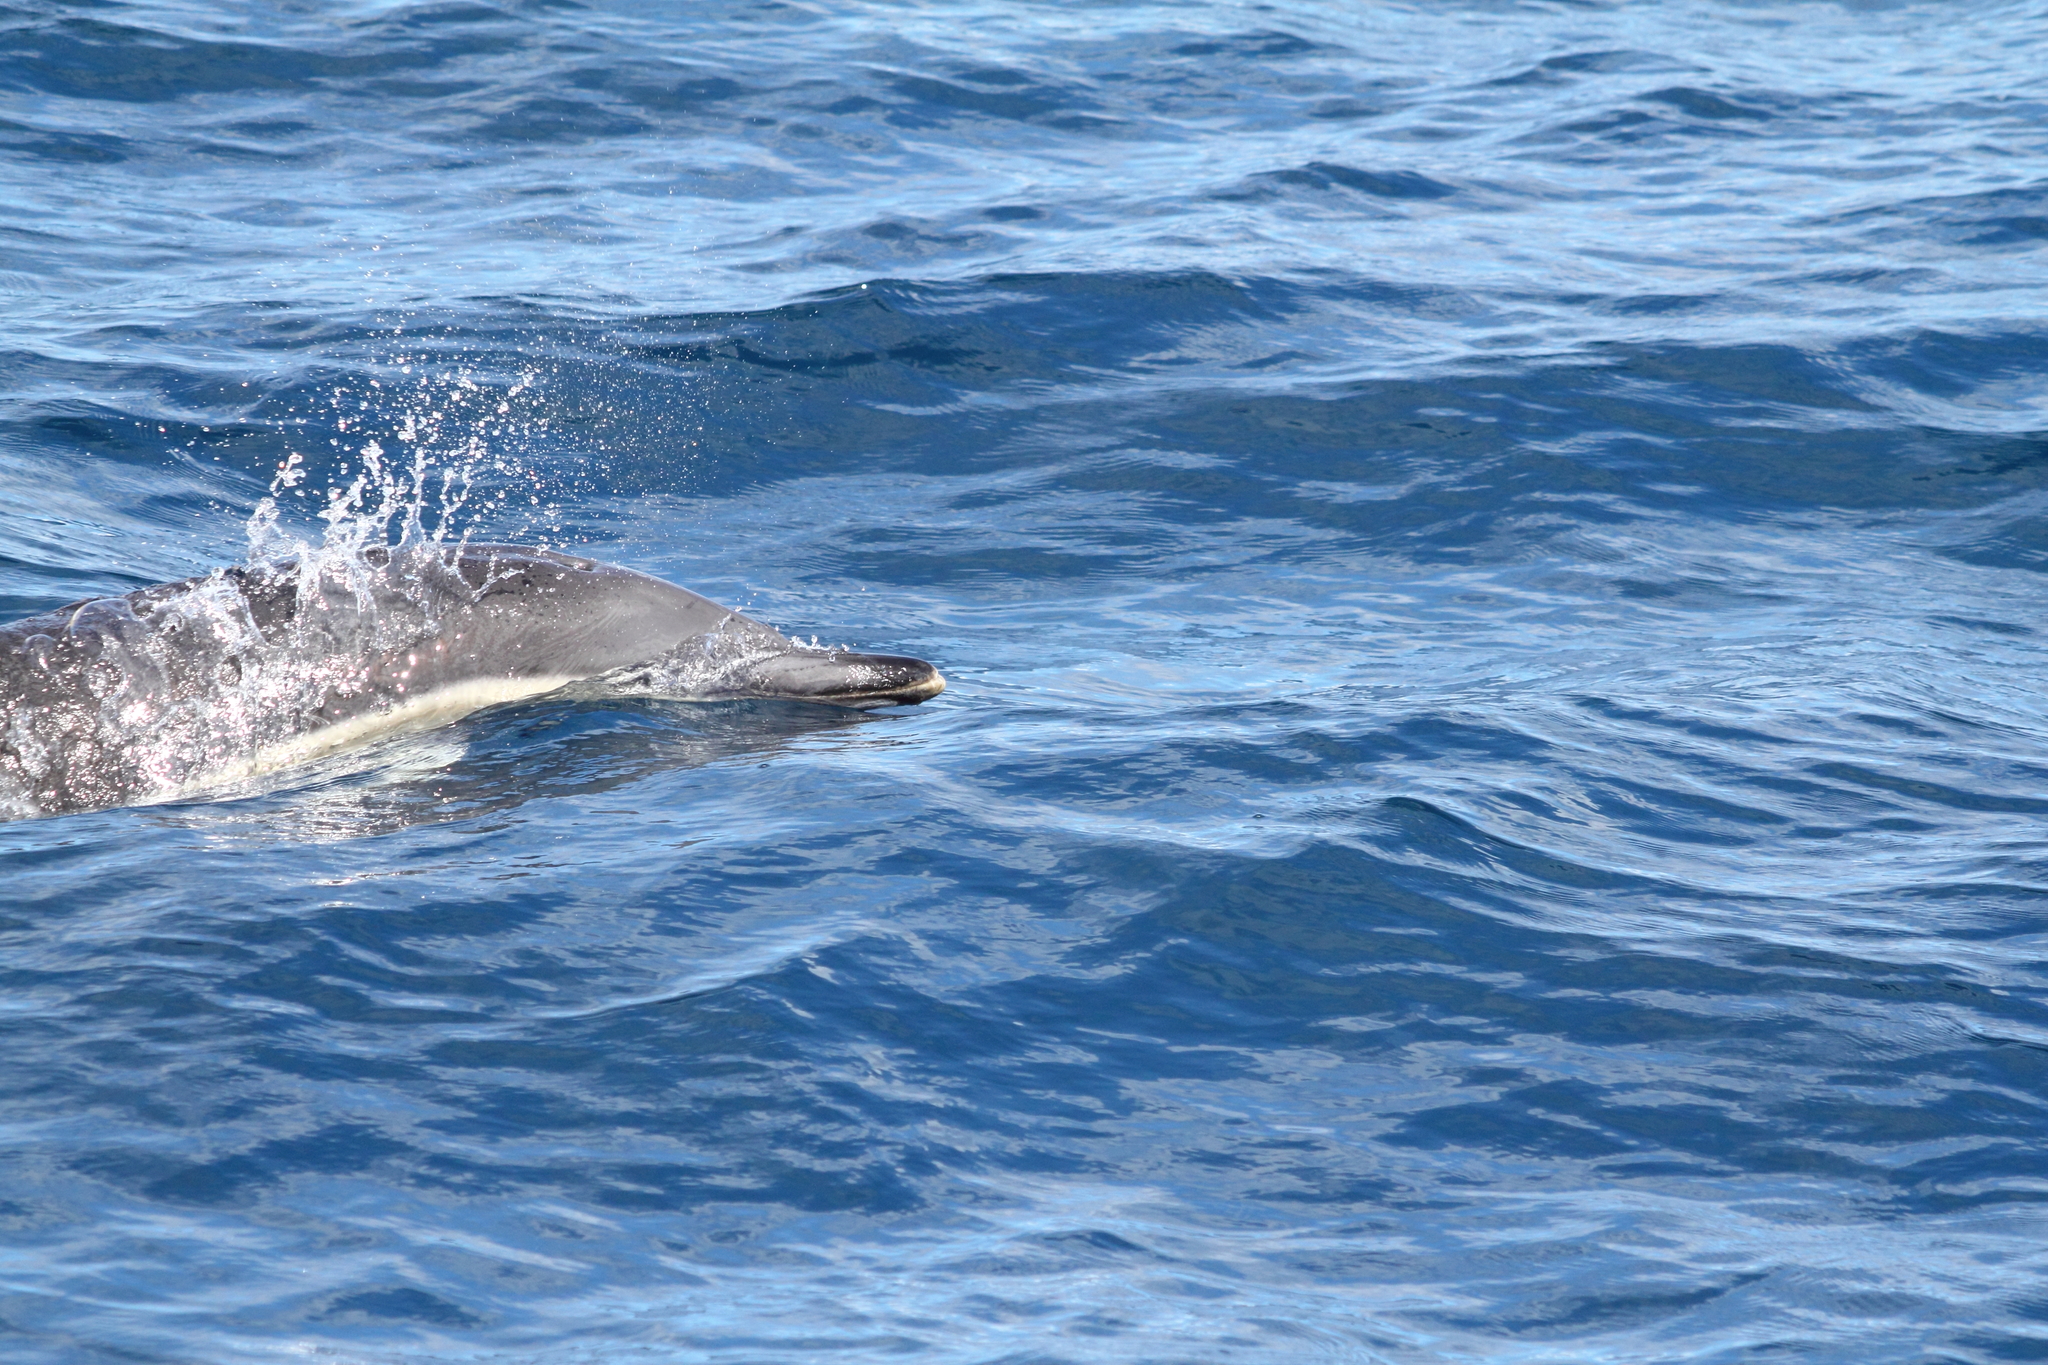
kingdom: Animalia
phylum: Chordata
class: Mammalia
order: Cetacea
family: Delphinidae
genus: Delphinus
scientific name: Delphinus delphis
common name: Common dolphin
